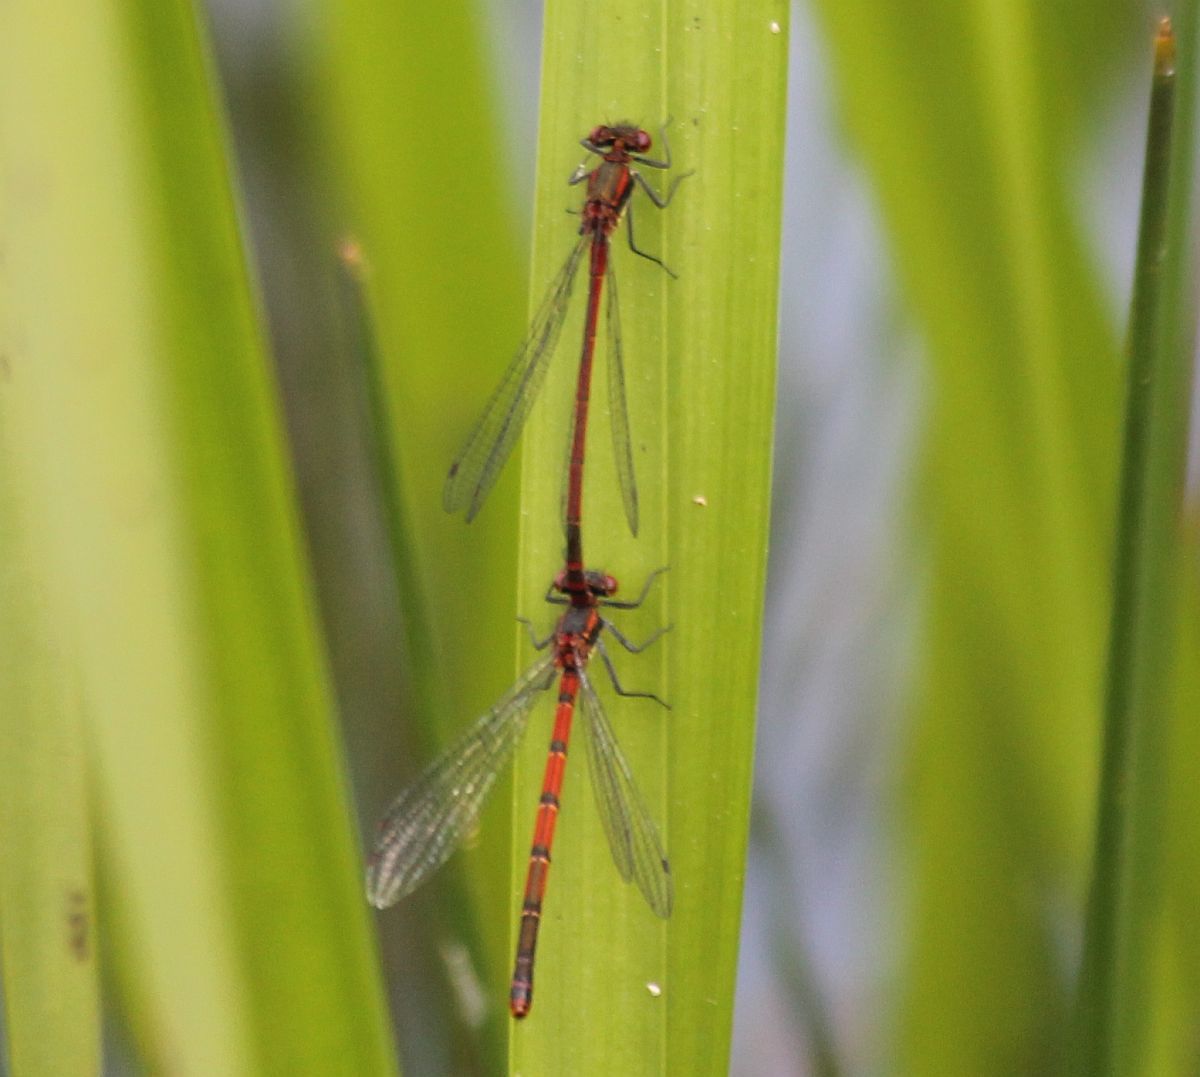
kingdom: Animalia
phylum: Arthropoda
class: Insecta
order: Odonata
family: Coenagrionidae
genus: Pyrrhosoma
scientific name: Pyrrhosoma nymphula
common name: Large red damsel
